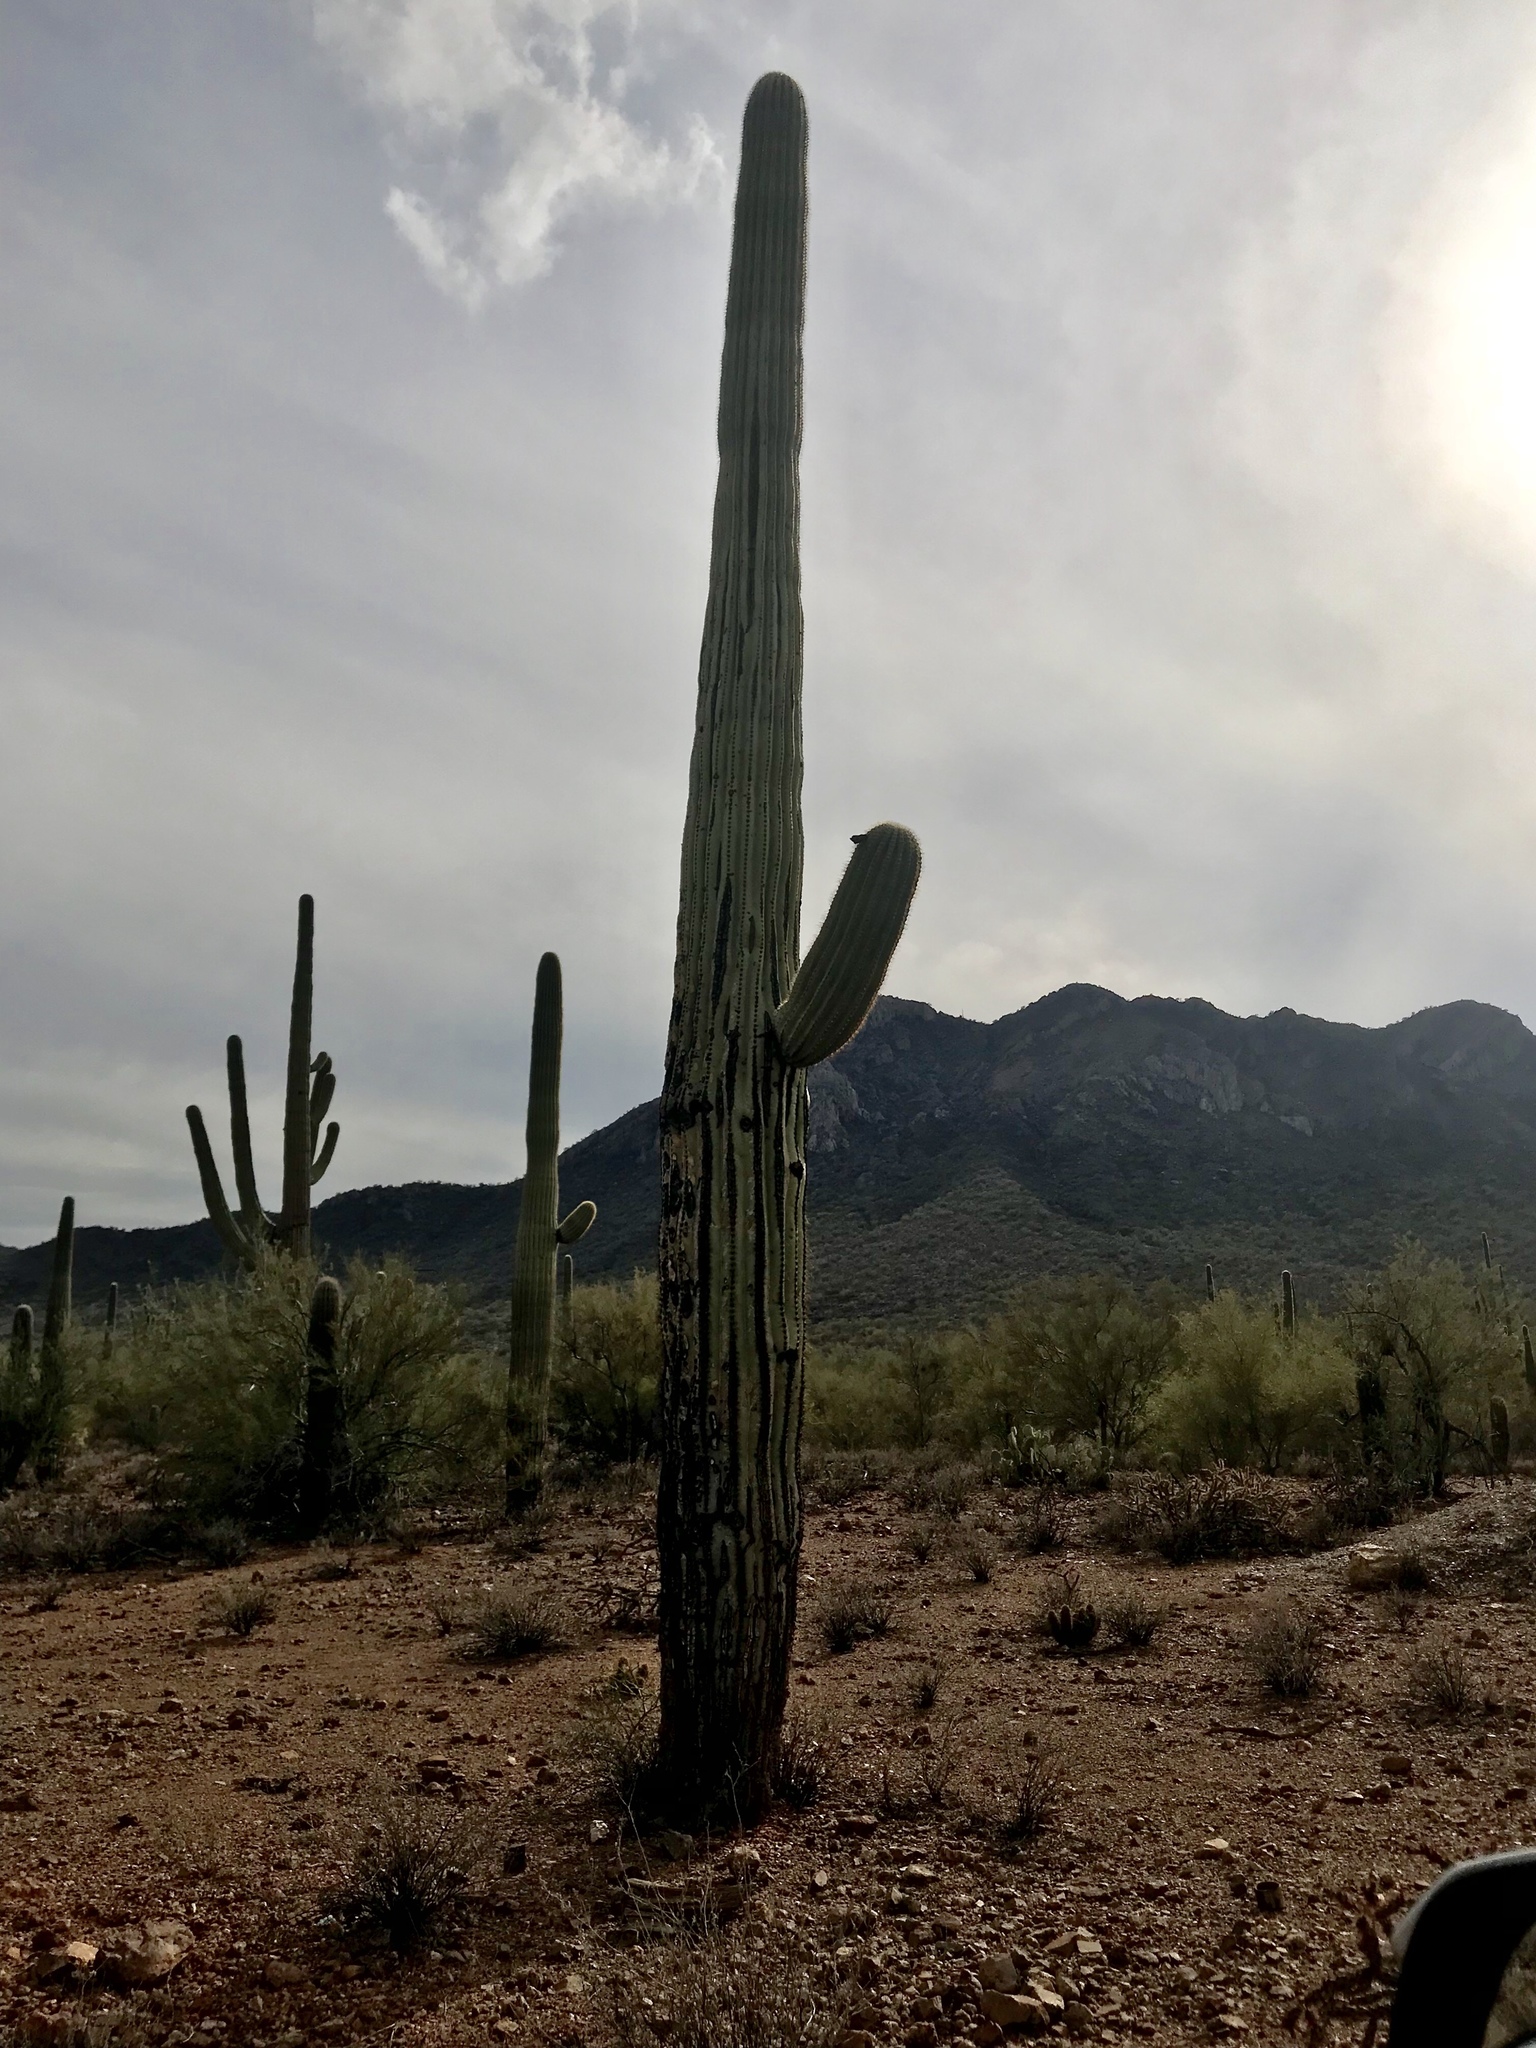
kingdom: Plantae
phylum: Tracheophyta
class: Magnoliopsida
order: Caryophyllales
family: Cactaceae
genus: Carnegiea
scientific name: Carnegiea gigantea
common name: Saguaro
